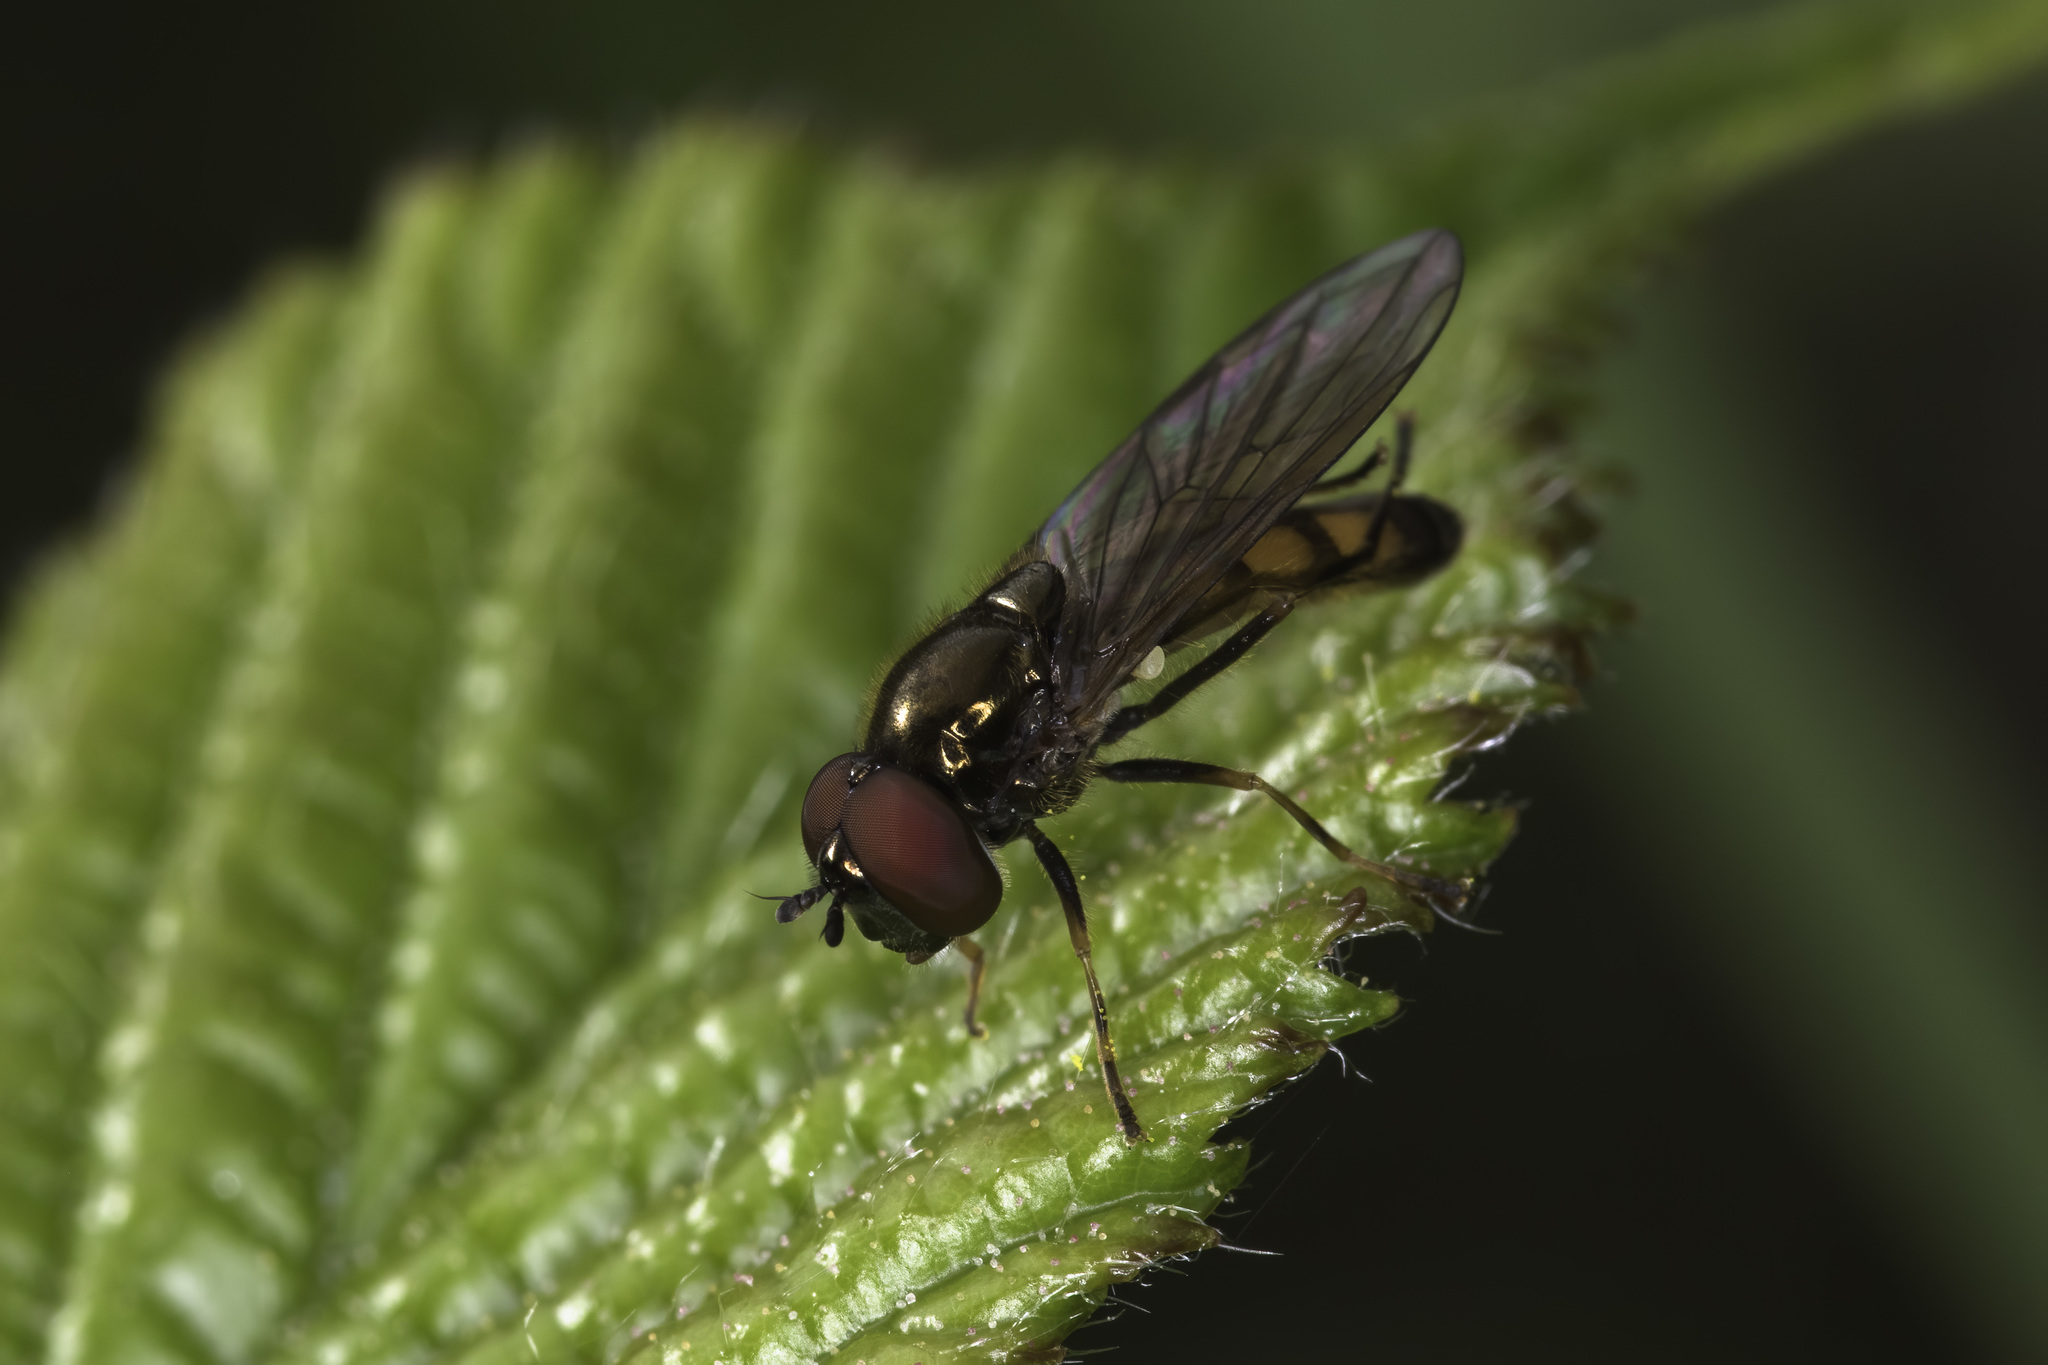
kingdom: Animalia
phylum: Arthropoda
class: Insecta
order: Diptera
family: Syrphidae
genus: Melanostoma
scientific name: Melanostoma mellina
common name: Hover fly
